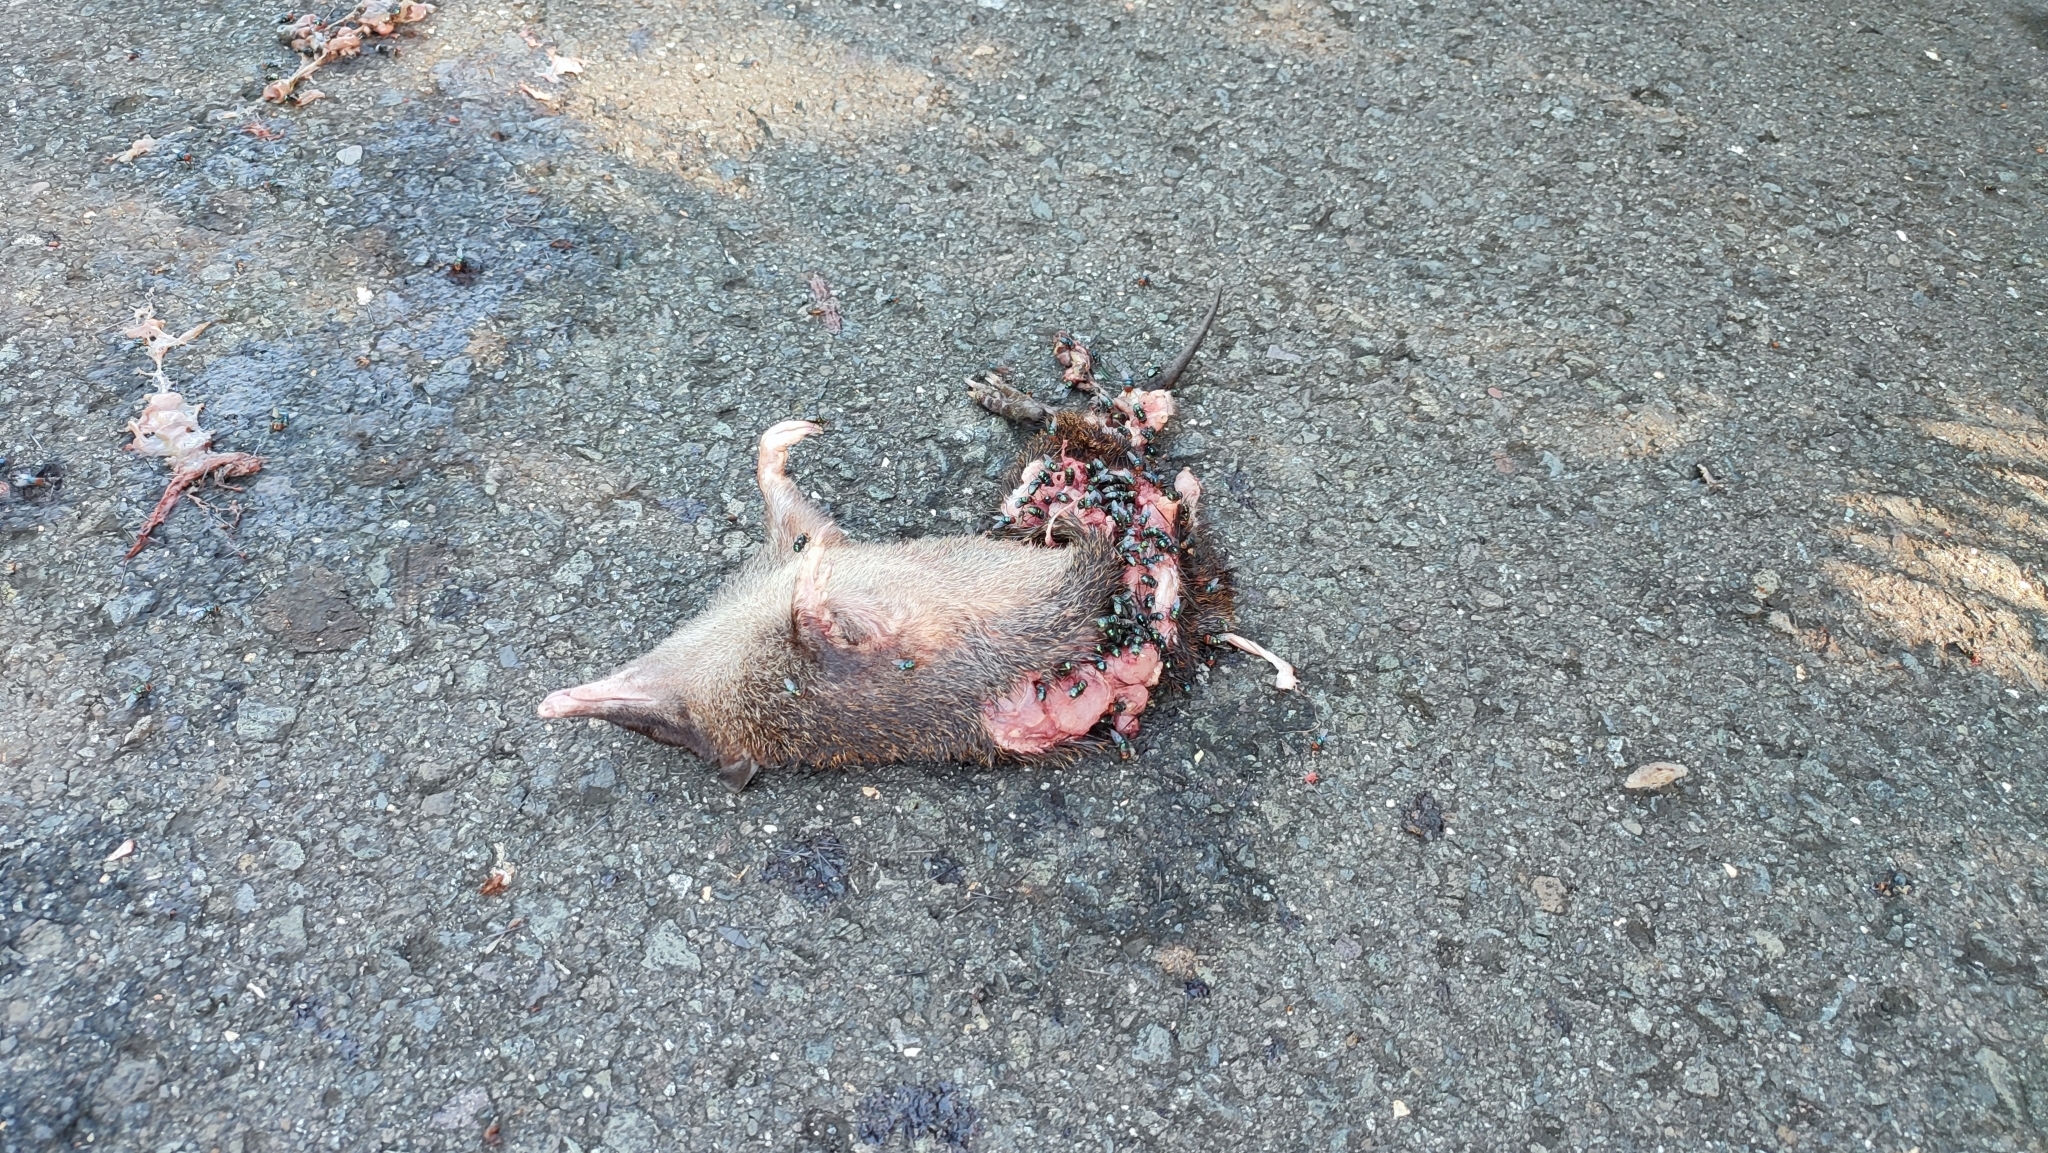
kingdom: Animalia
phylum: Chordata
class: Mammalia
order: Peramelemorphia
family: Peramelidae
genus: Echymipera
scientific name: Echymipera kalubu
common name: Common echymipera
